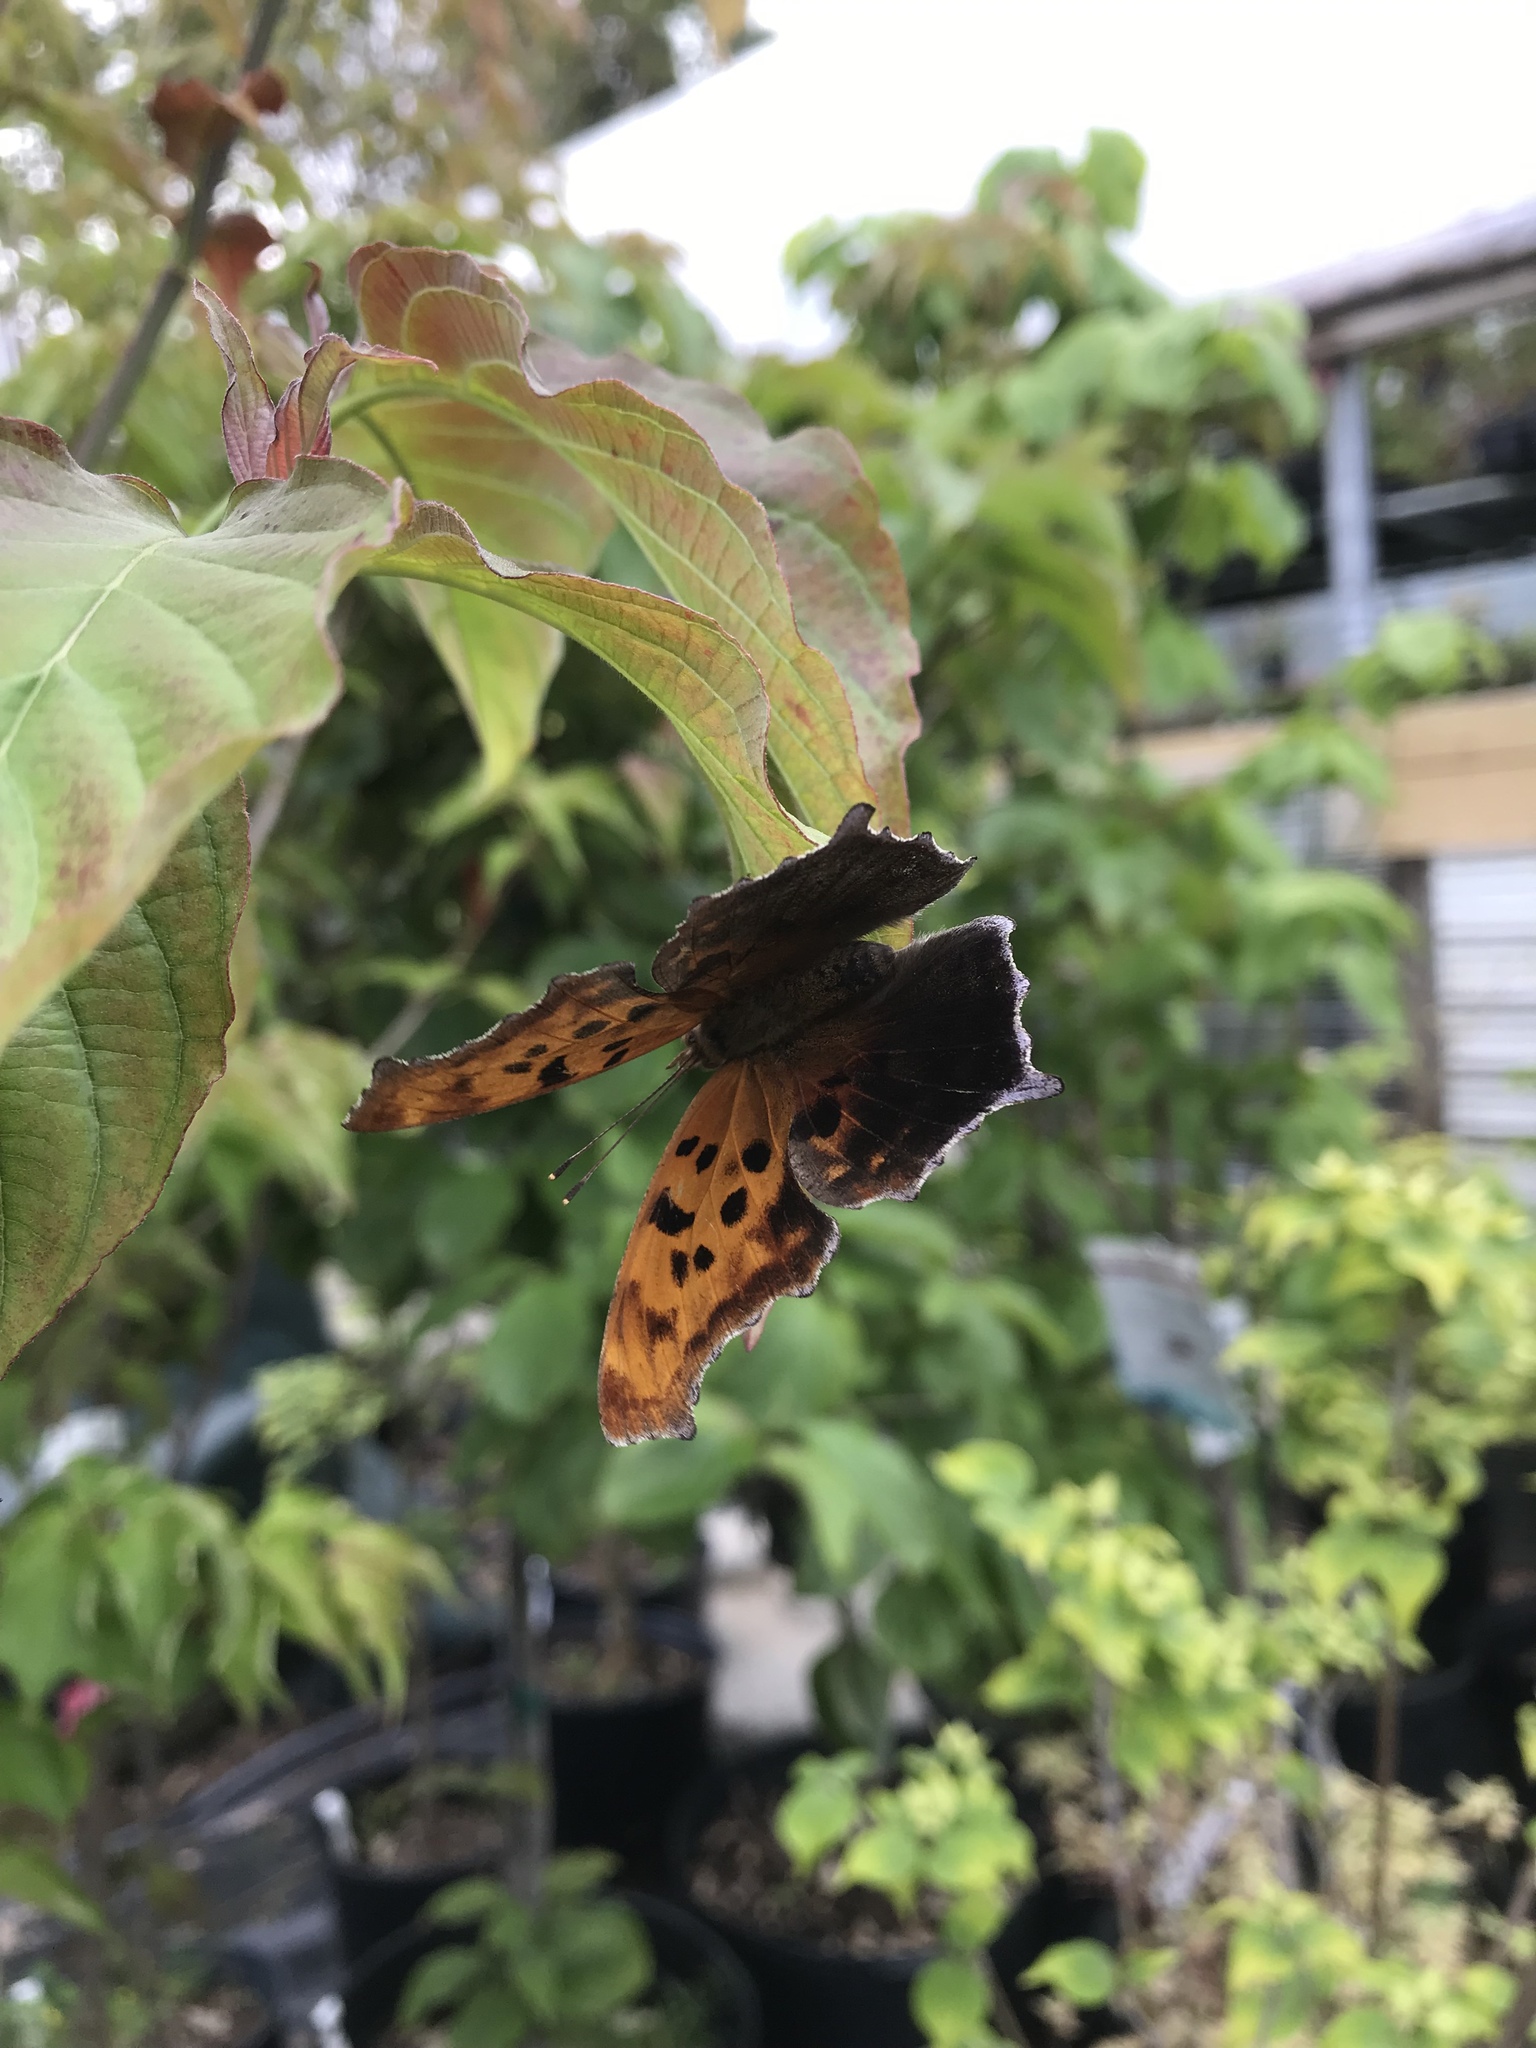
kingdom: Animalia
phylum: Arthropoda
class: Insecta
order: Lepidoptera
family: Nymphalidae
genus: Polygonia
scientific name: Polygonia interrogationis
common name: Question mark
